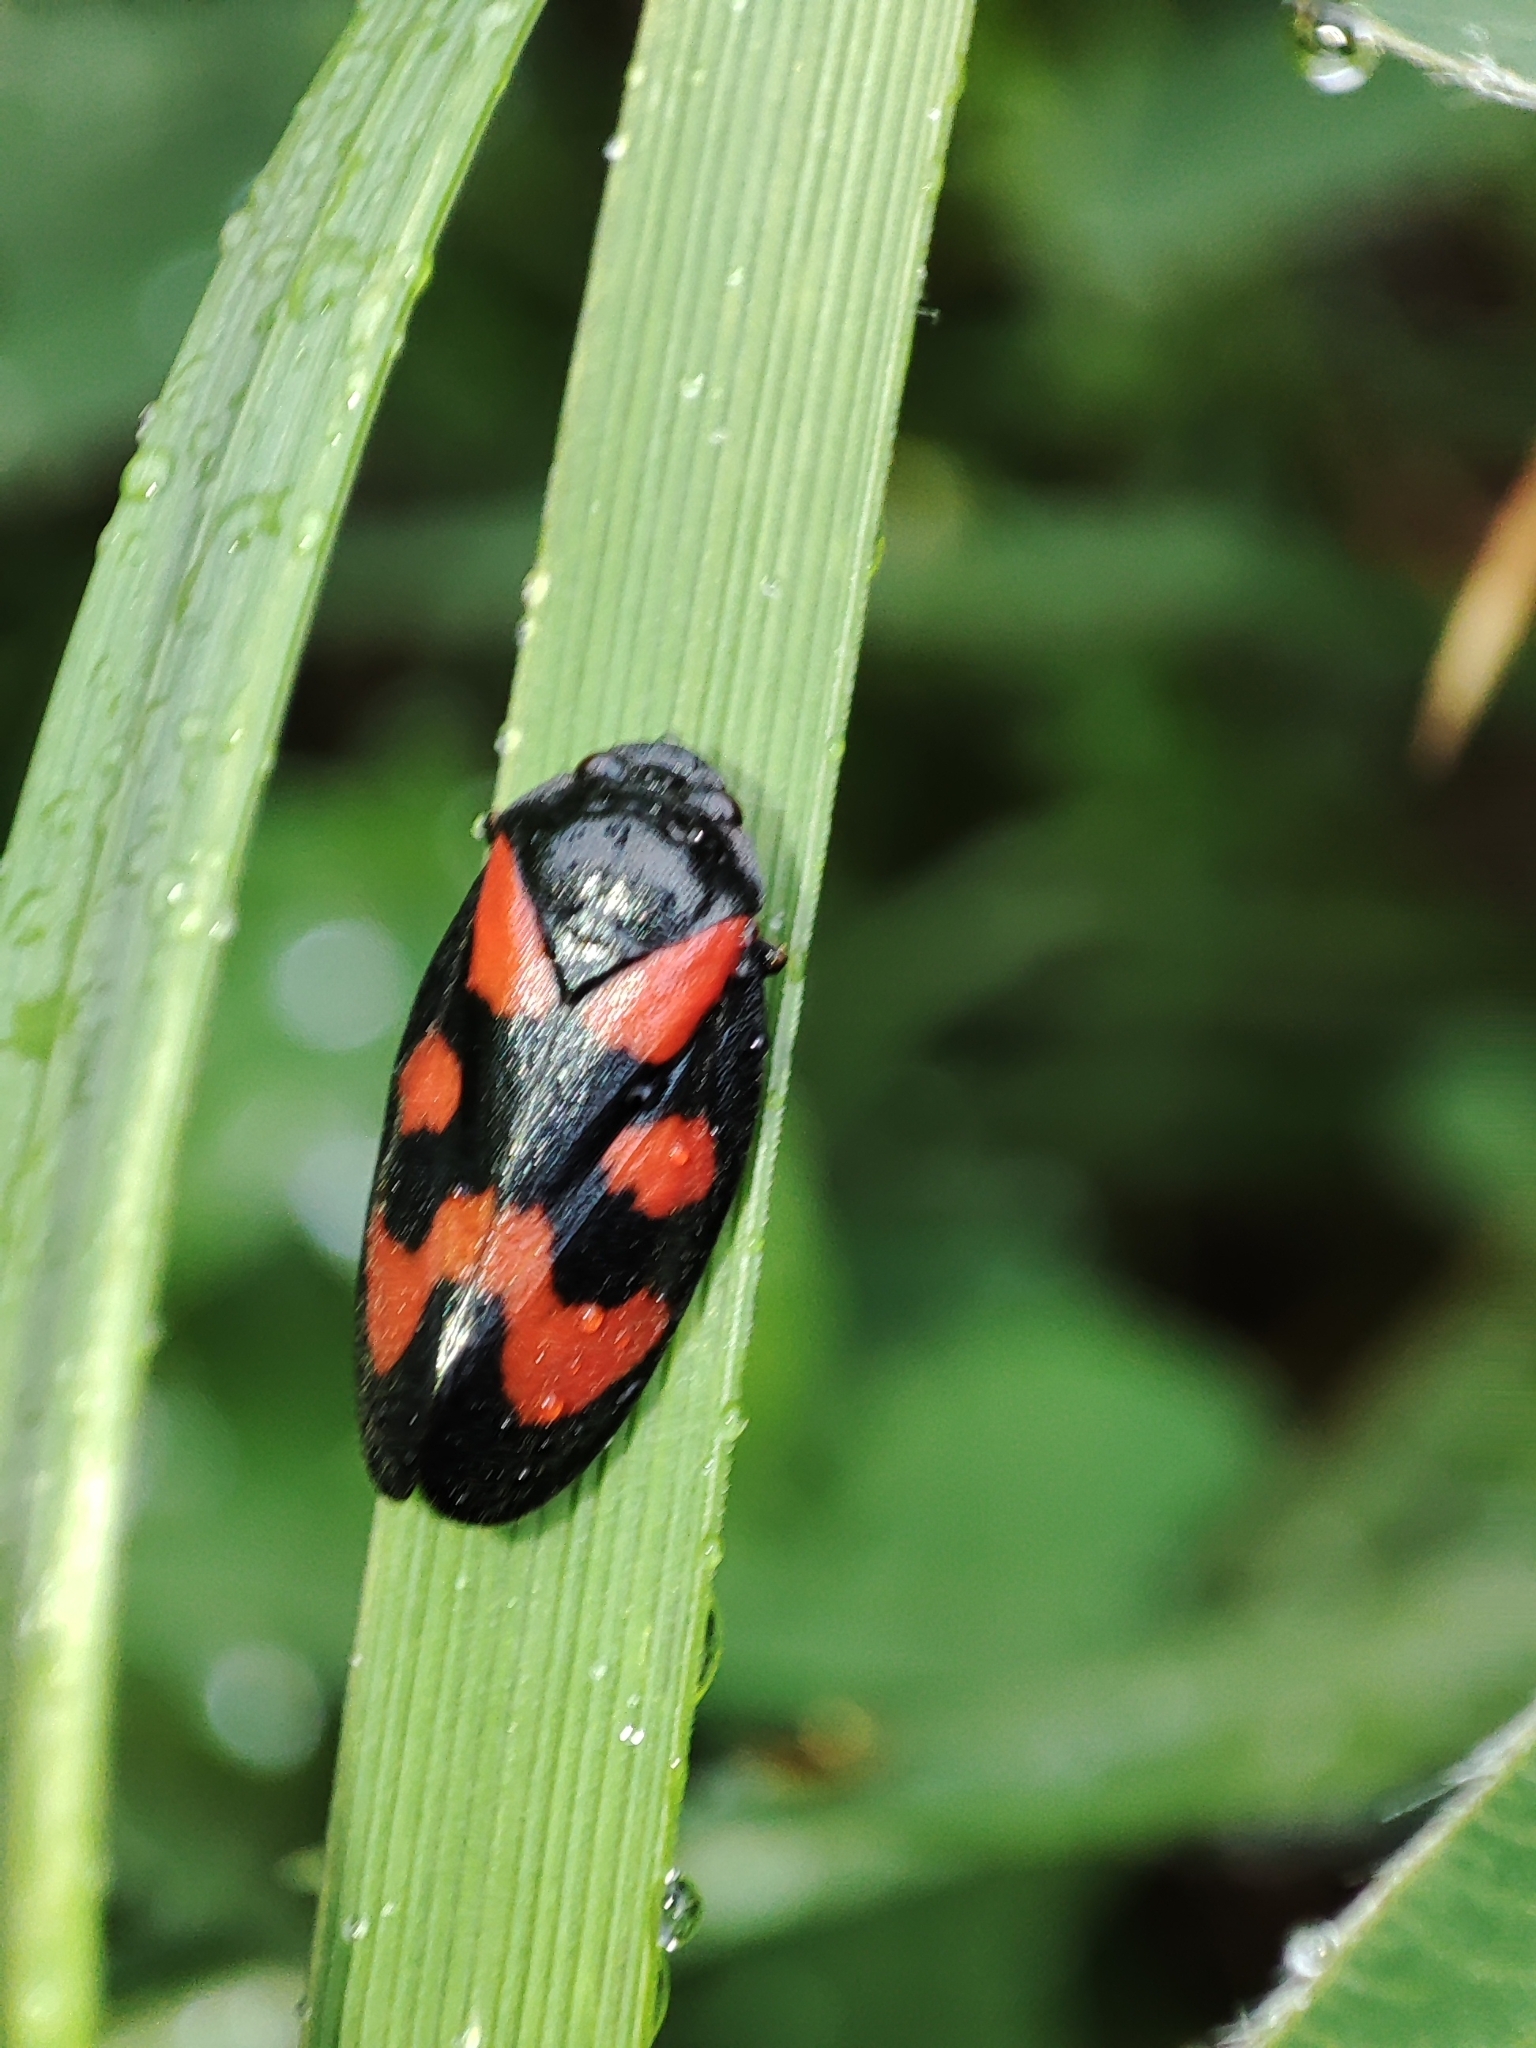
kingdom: Animalia
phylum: Arthropoda
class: Insecta
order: Hemiptera
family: Cercopidae
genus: Cercopis
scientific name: Cercopis vulnerata
